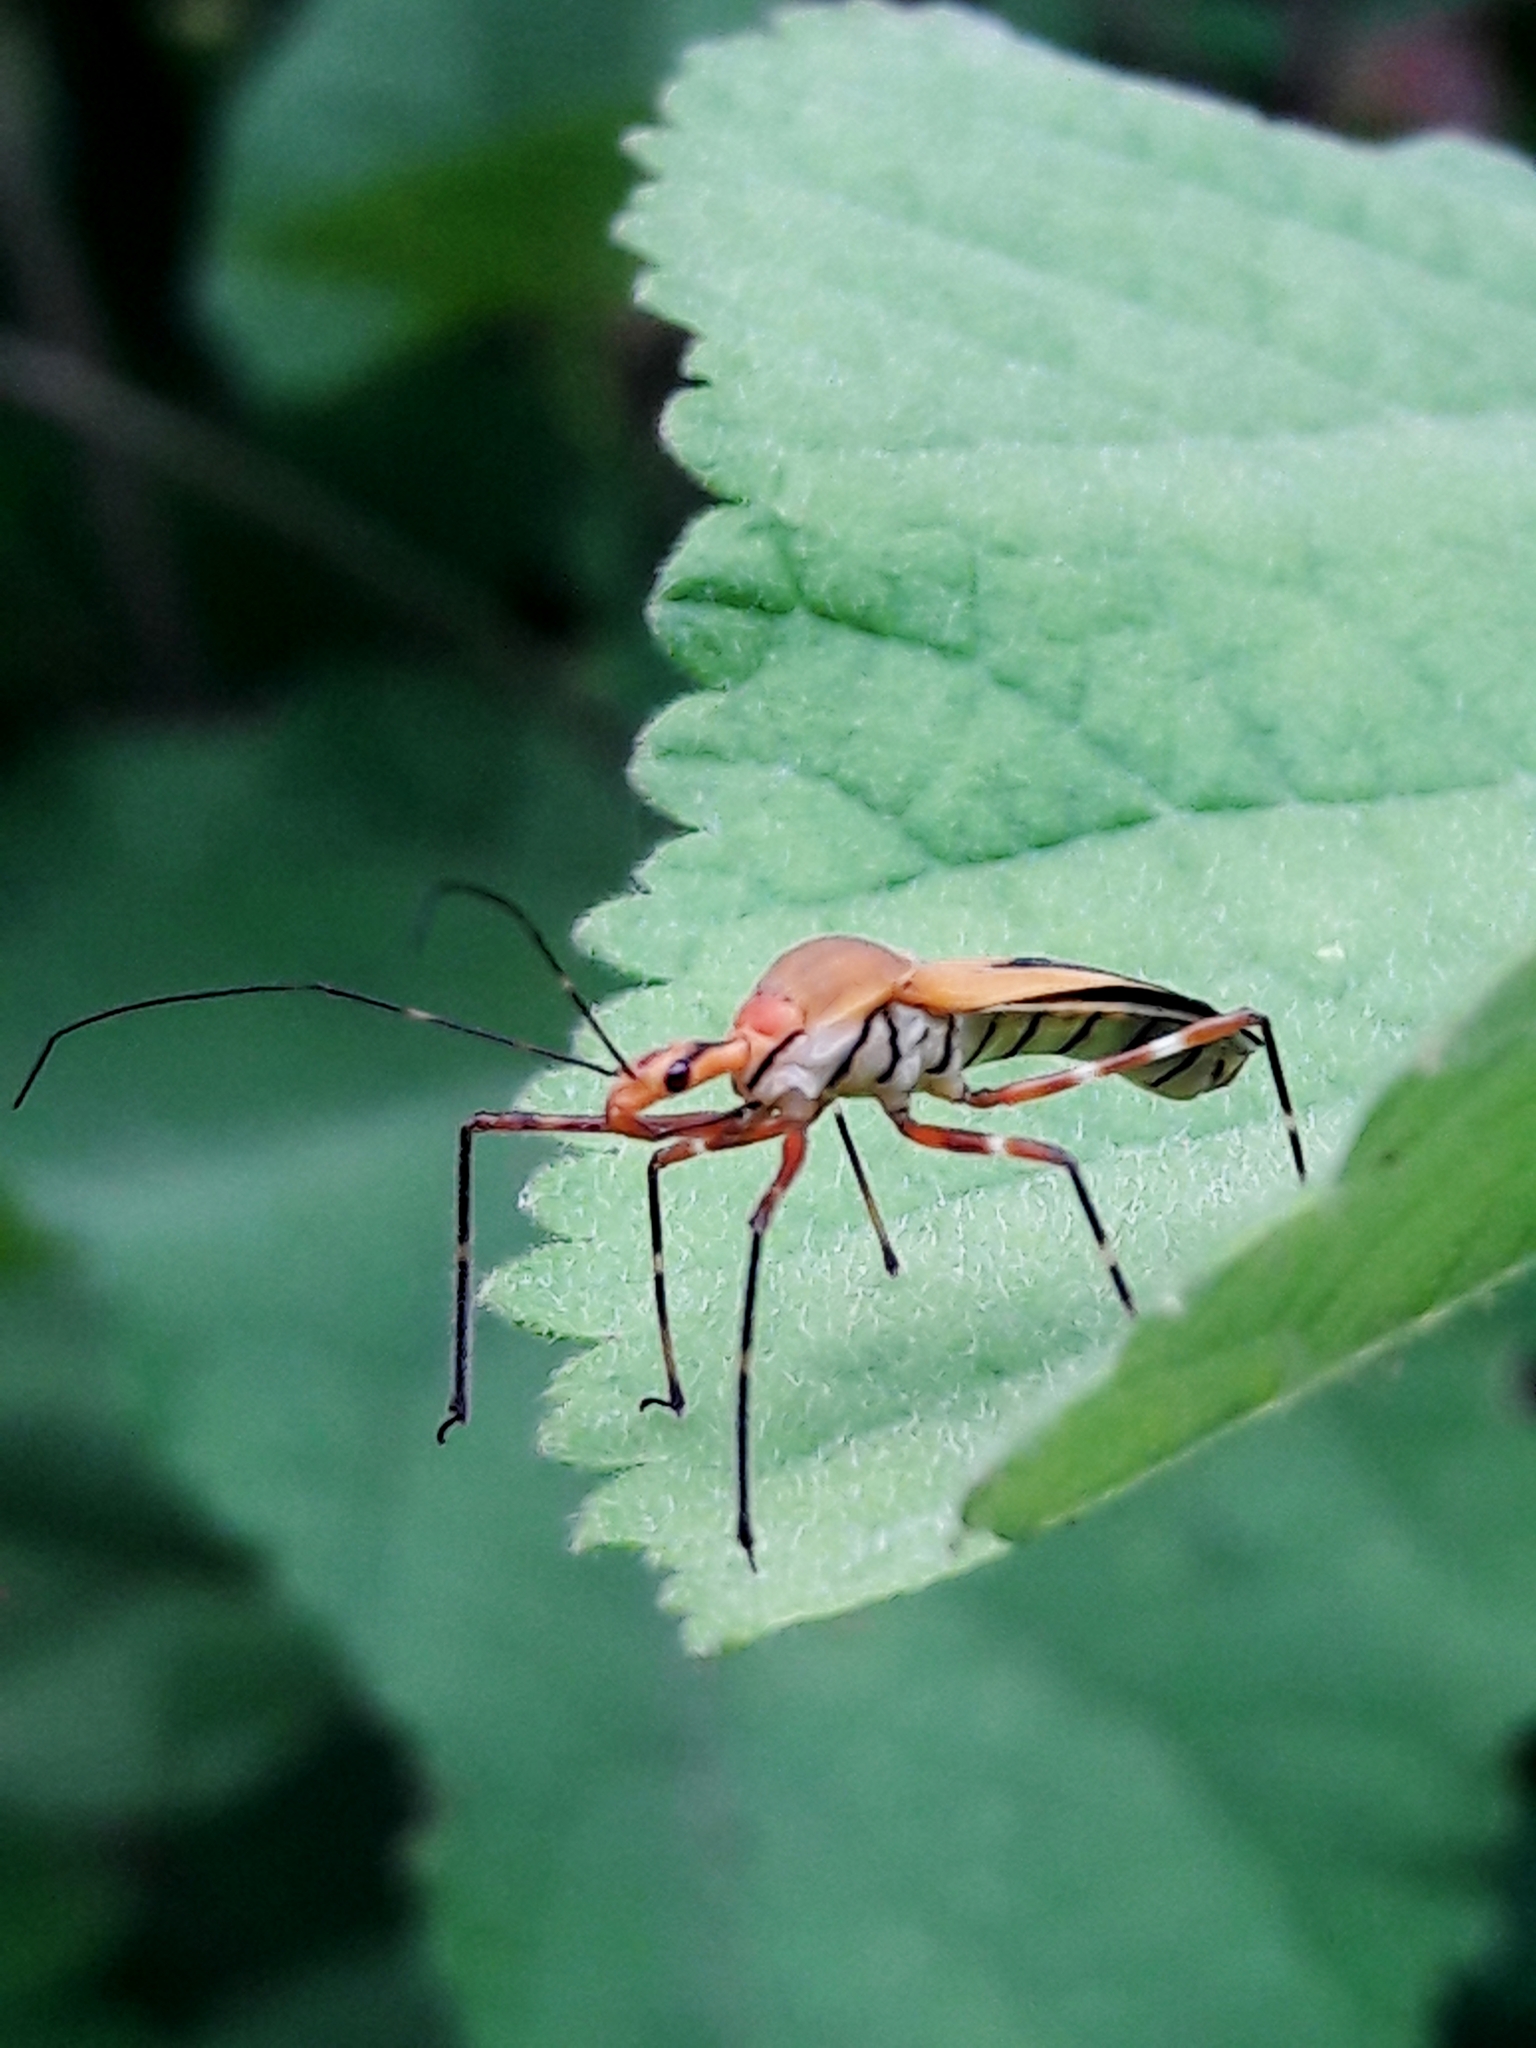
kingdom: Animalia
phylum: Arthropoda
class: Insecta
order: Hemiptera
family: Reduviidae
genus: Zelus
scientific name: Zelus laticornis
